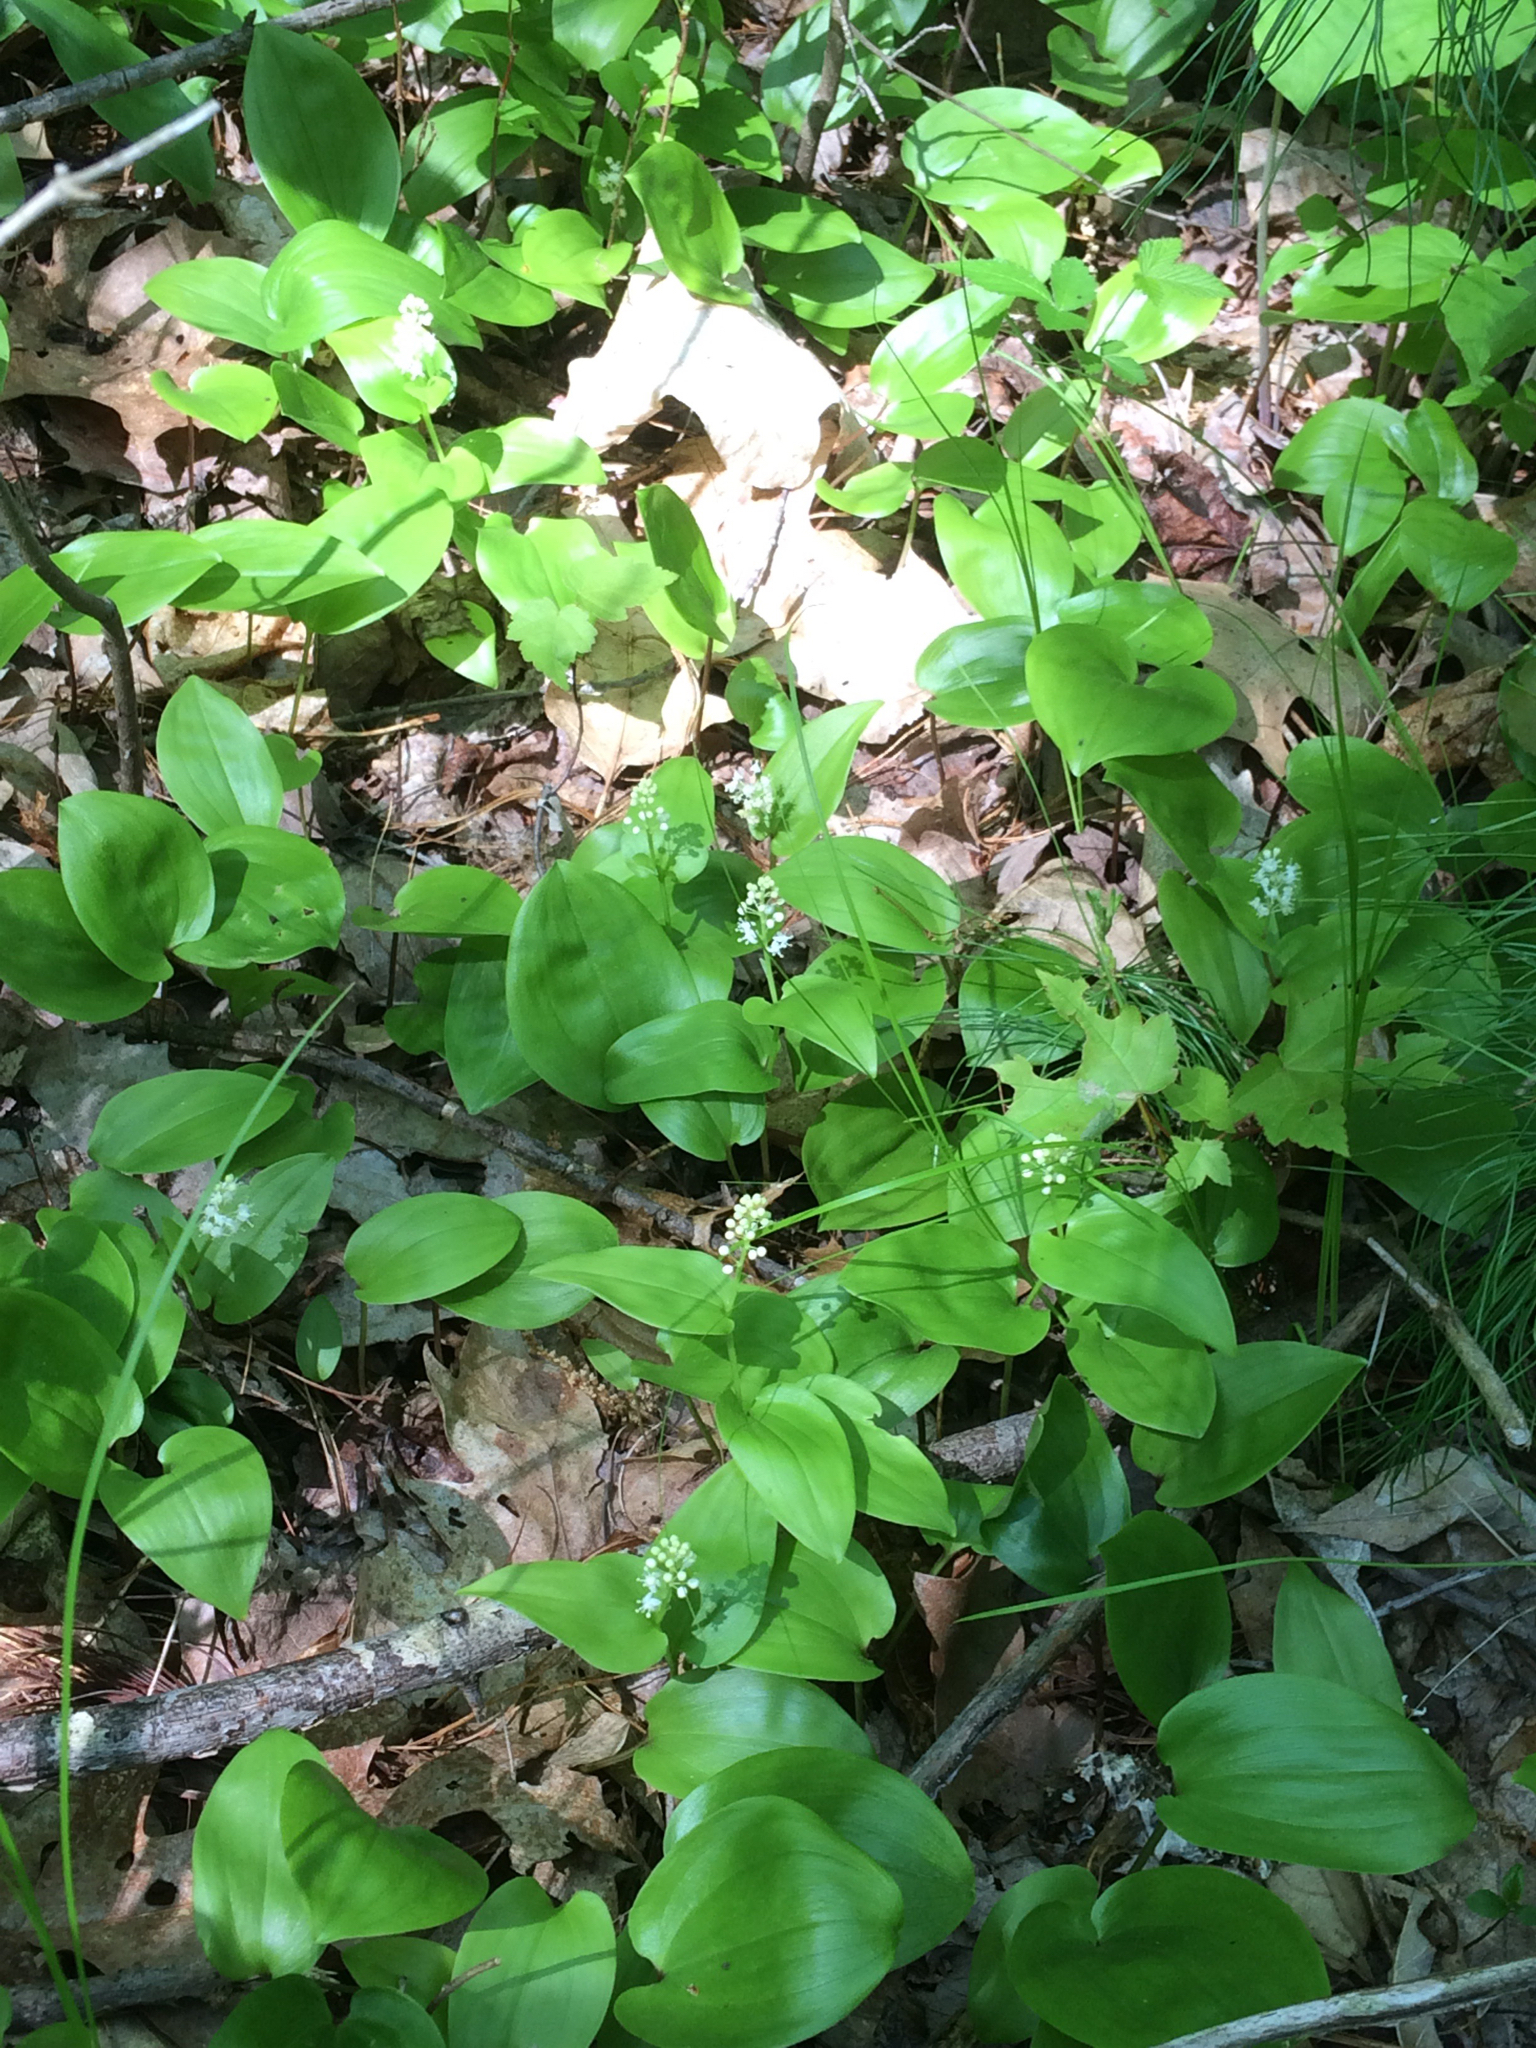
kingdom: Plantae
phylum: Tracheophyta
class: Liliopsida
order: Asparagales
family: Asparagaceae
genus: Maianthemum
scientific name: Maianthemum canadense
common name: False lily-of-the-valley
